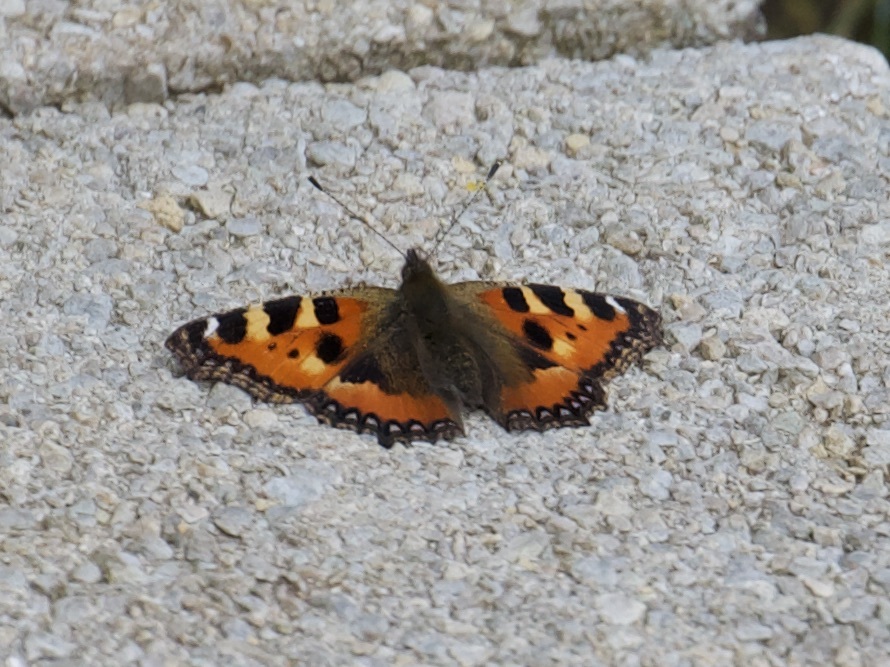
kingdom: Animalia
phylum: Arthropoda
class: Insecta
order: Lepidoptera
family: Nymphalidae
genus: Aglais
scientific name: Aglais urticae
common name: Small tortoiseshell
